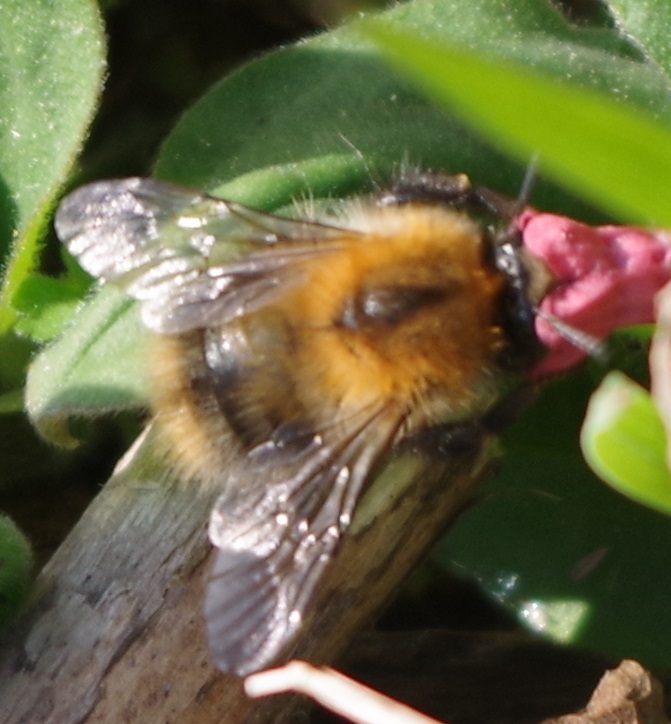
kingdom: Animalia
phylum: Arthropoda
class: Insecta
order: Hymenoptera
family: Apidae
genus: Bombus
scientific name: Bombus pascuorum
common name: Common carder bee
